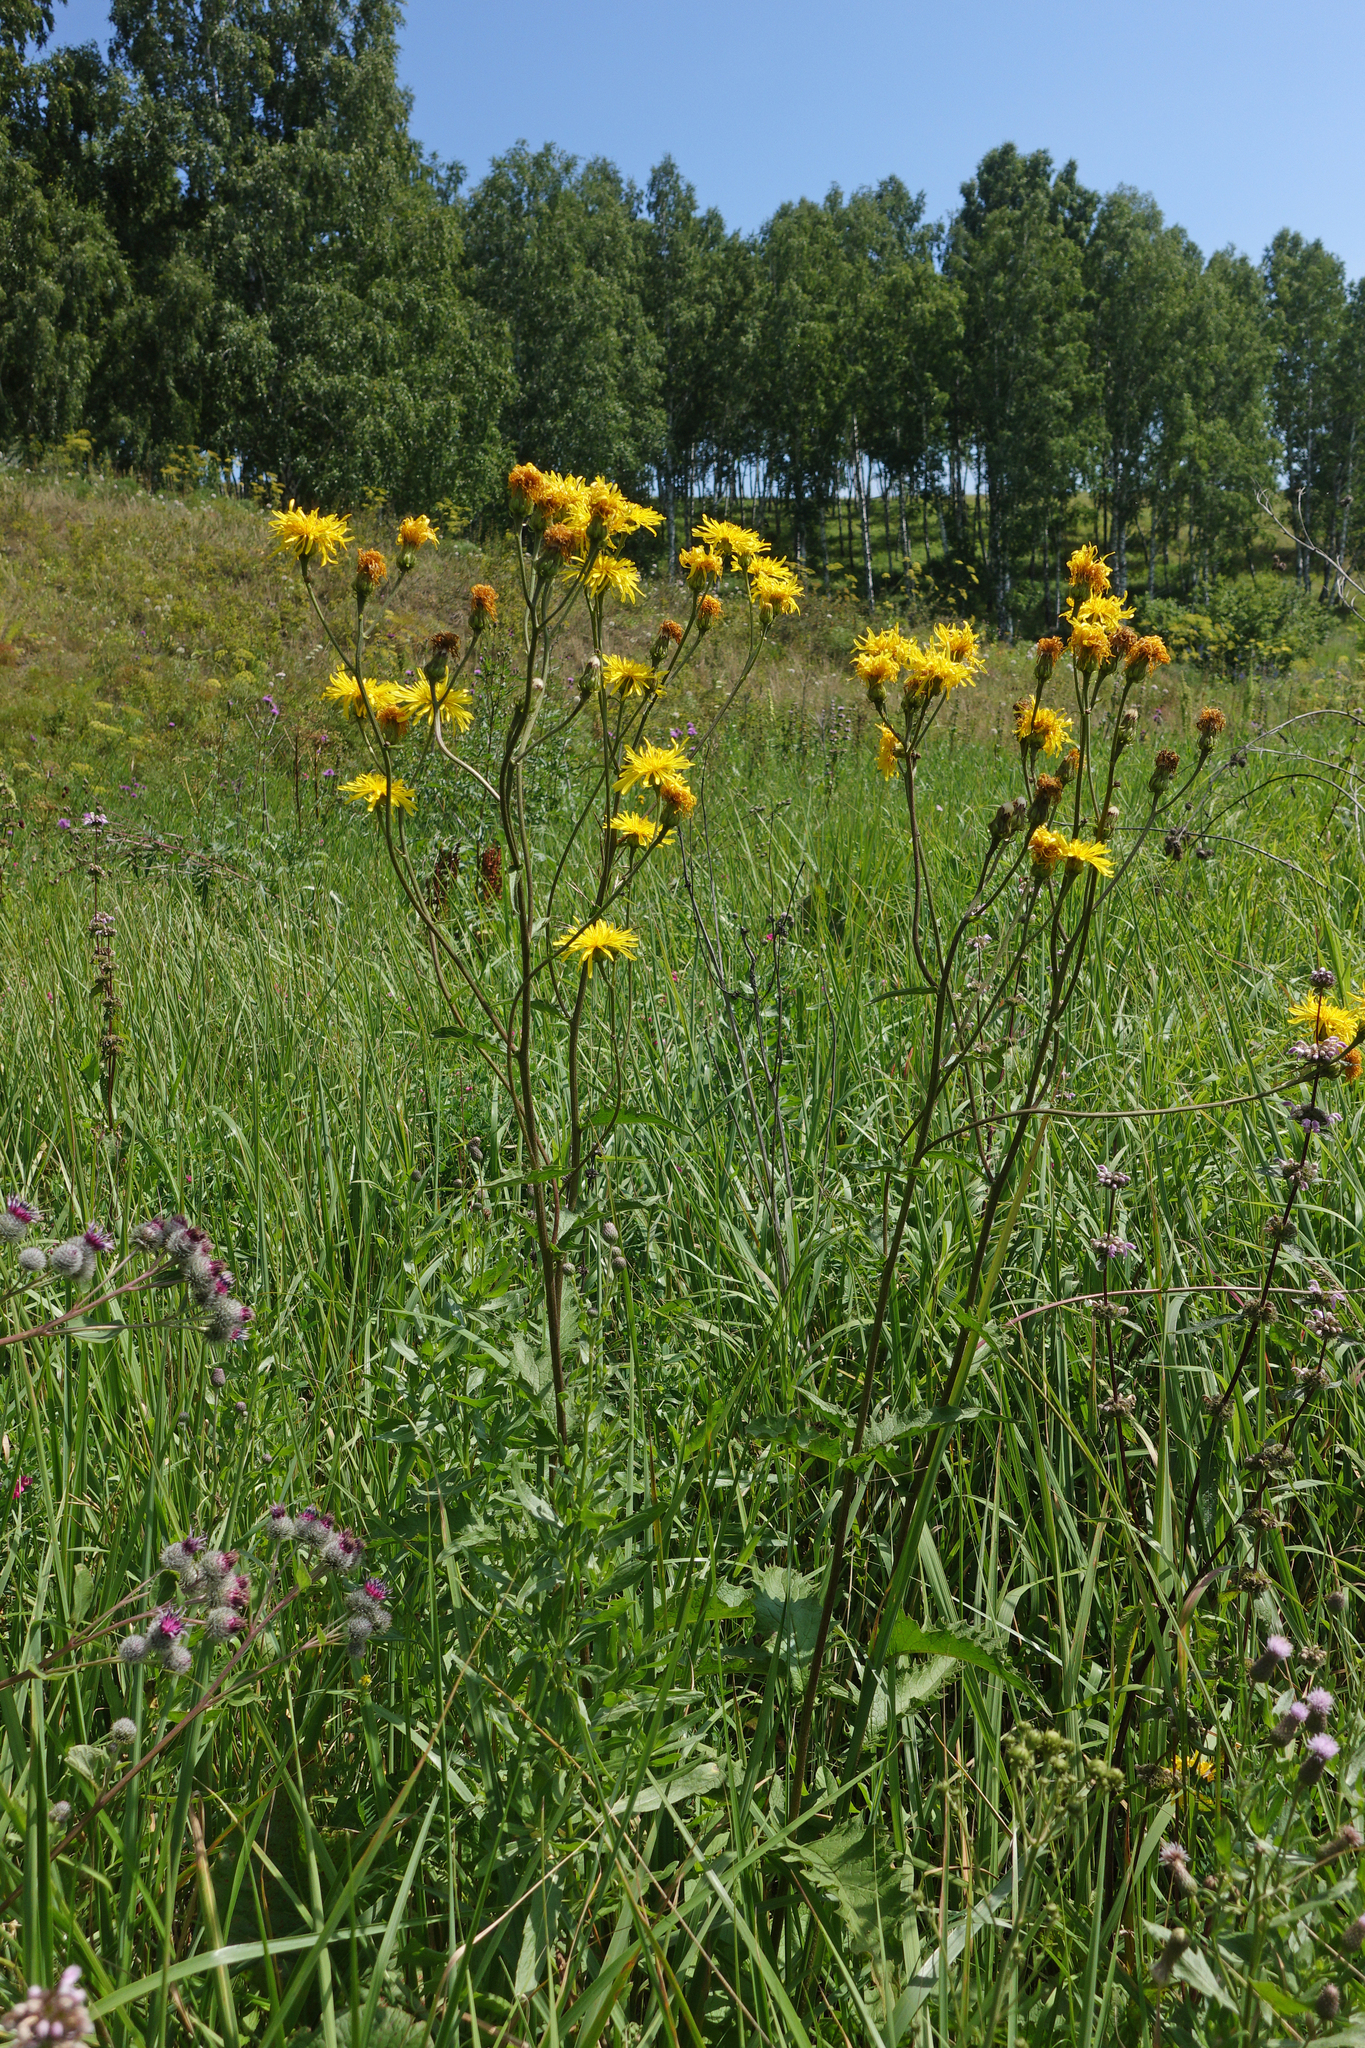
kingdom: Plantae
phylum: Tracheophyta
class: Magnoliopsida
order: Asterales
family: Asteraceae
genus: Crepis
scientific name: Crepis sibirica
